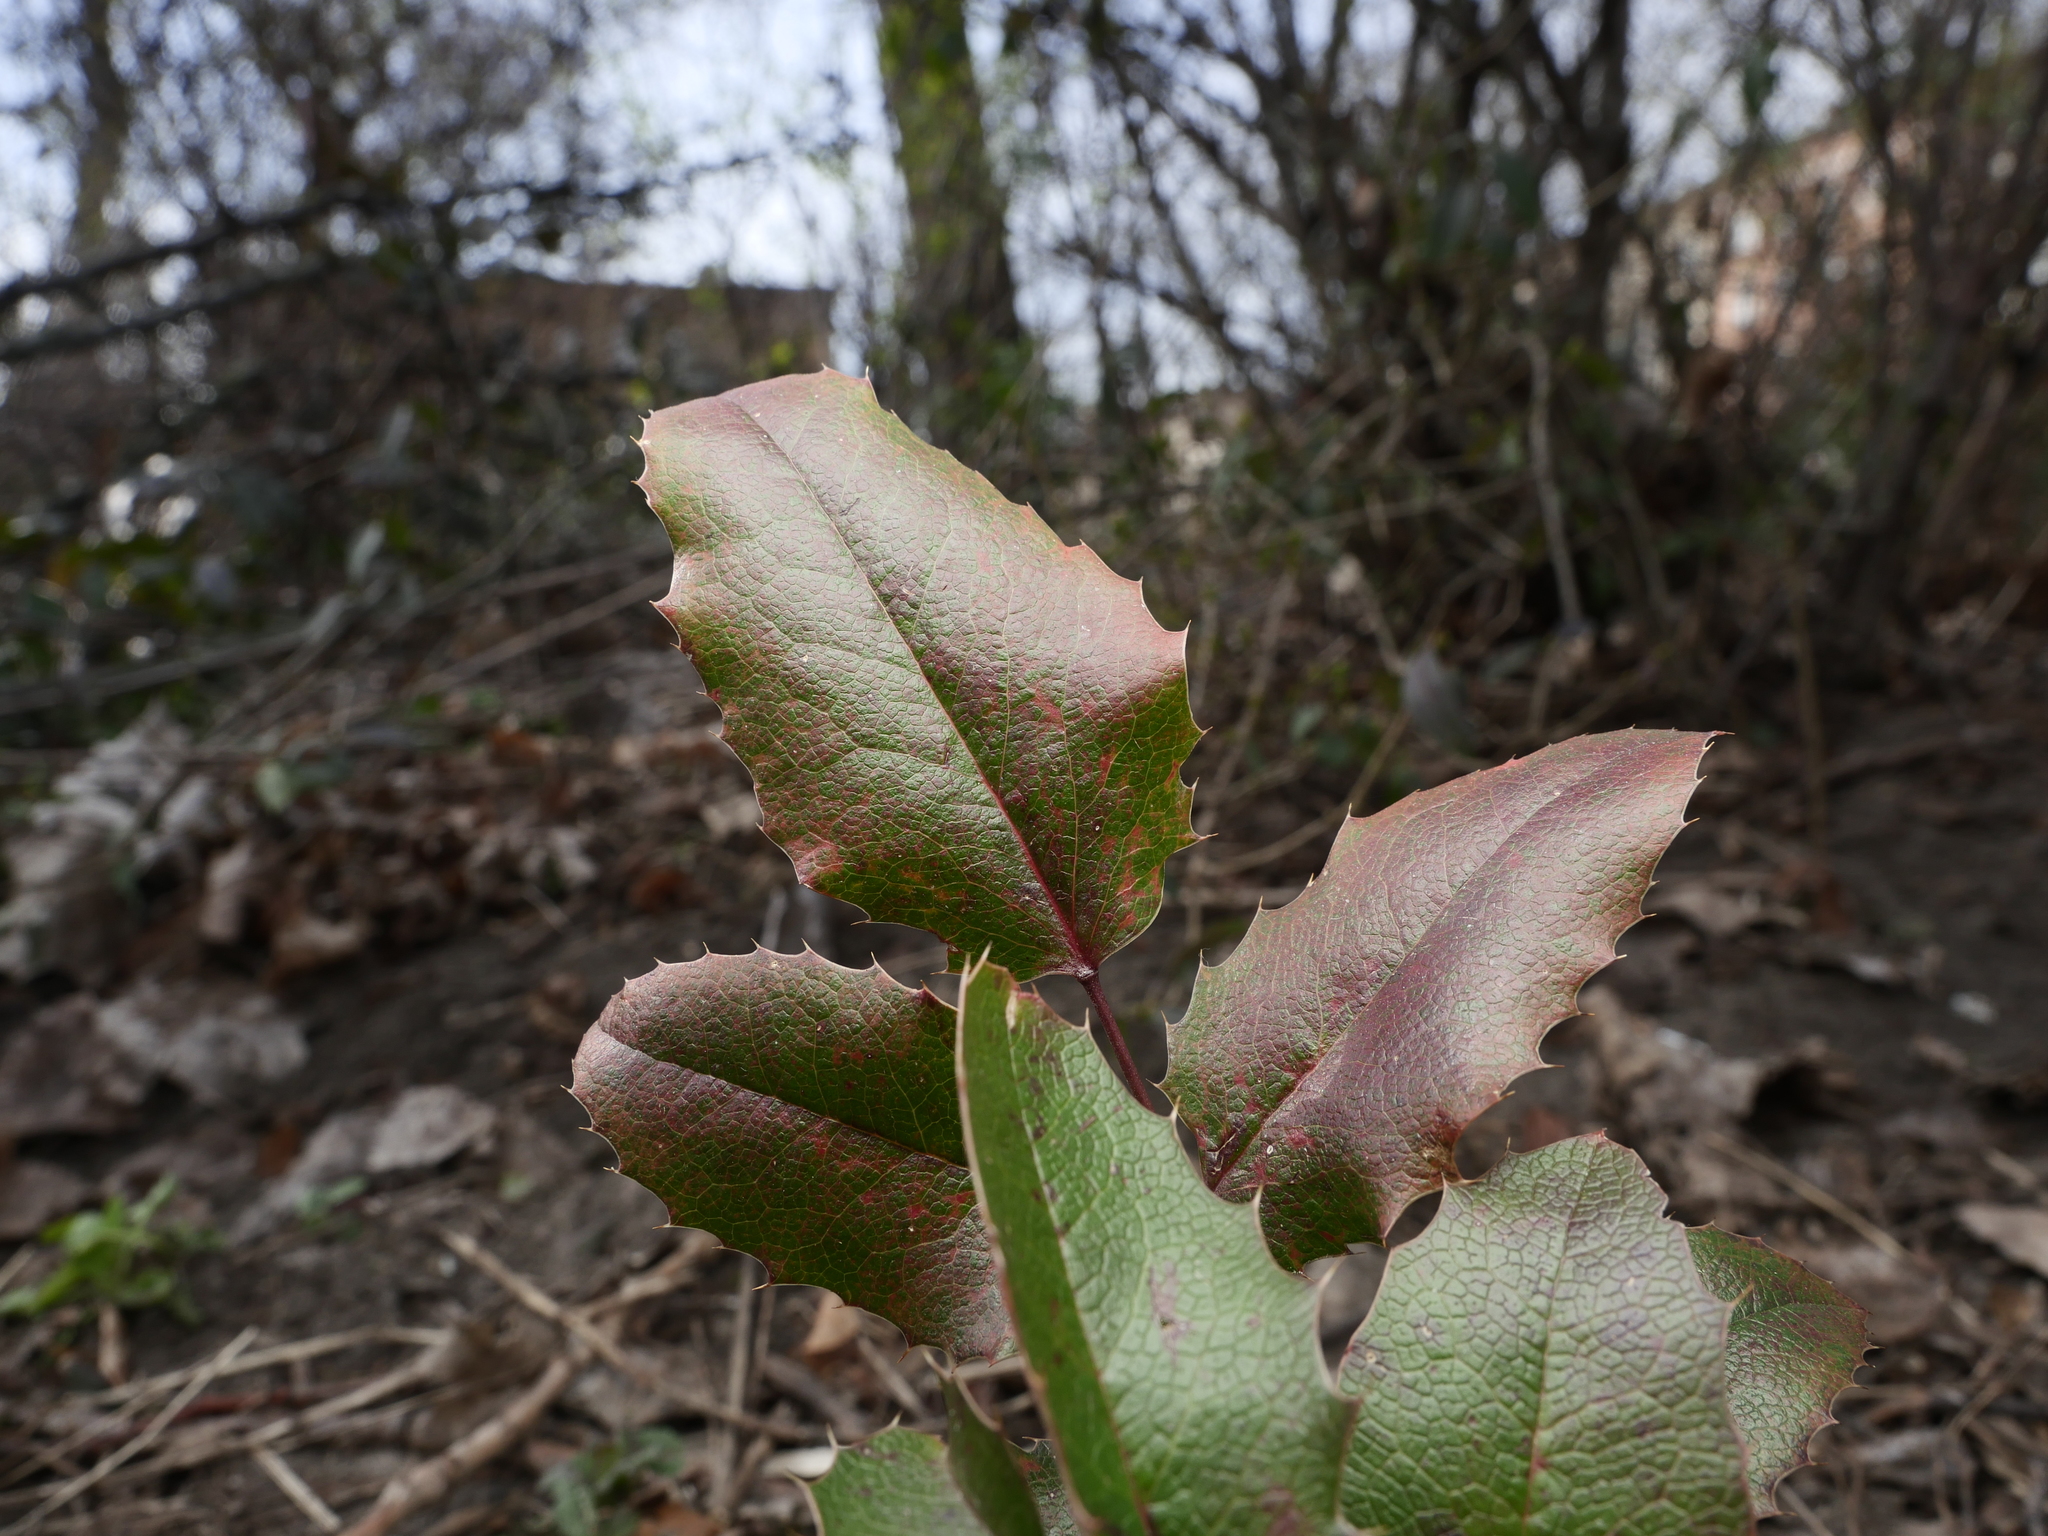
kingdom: Plantae
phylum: Tracheophyta
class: Magnoliopsida
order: Ranunculales
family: Berberidaceae
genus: Mahonia
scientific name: Mahonia aquifolium
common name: Oregon-grape
